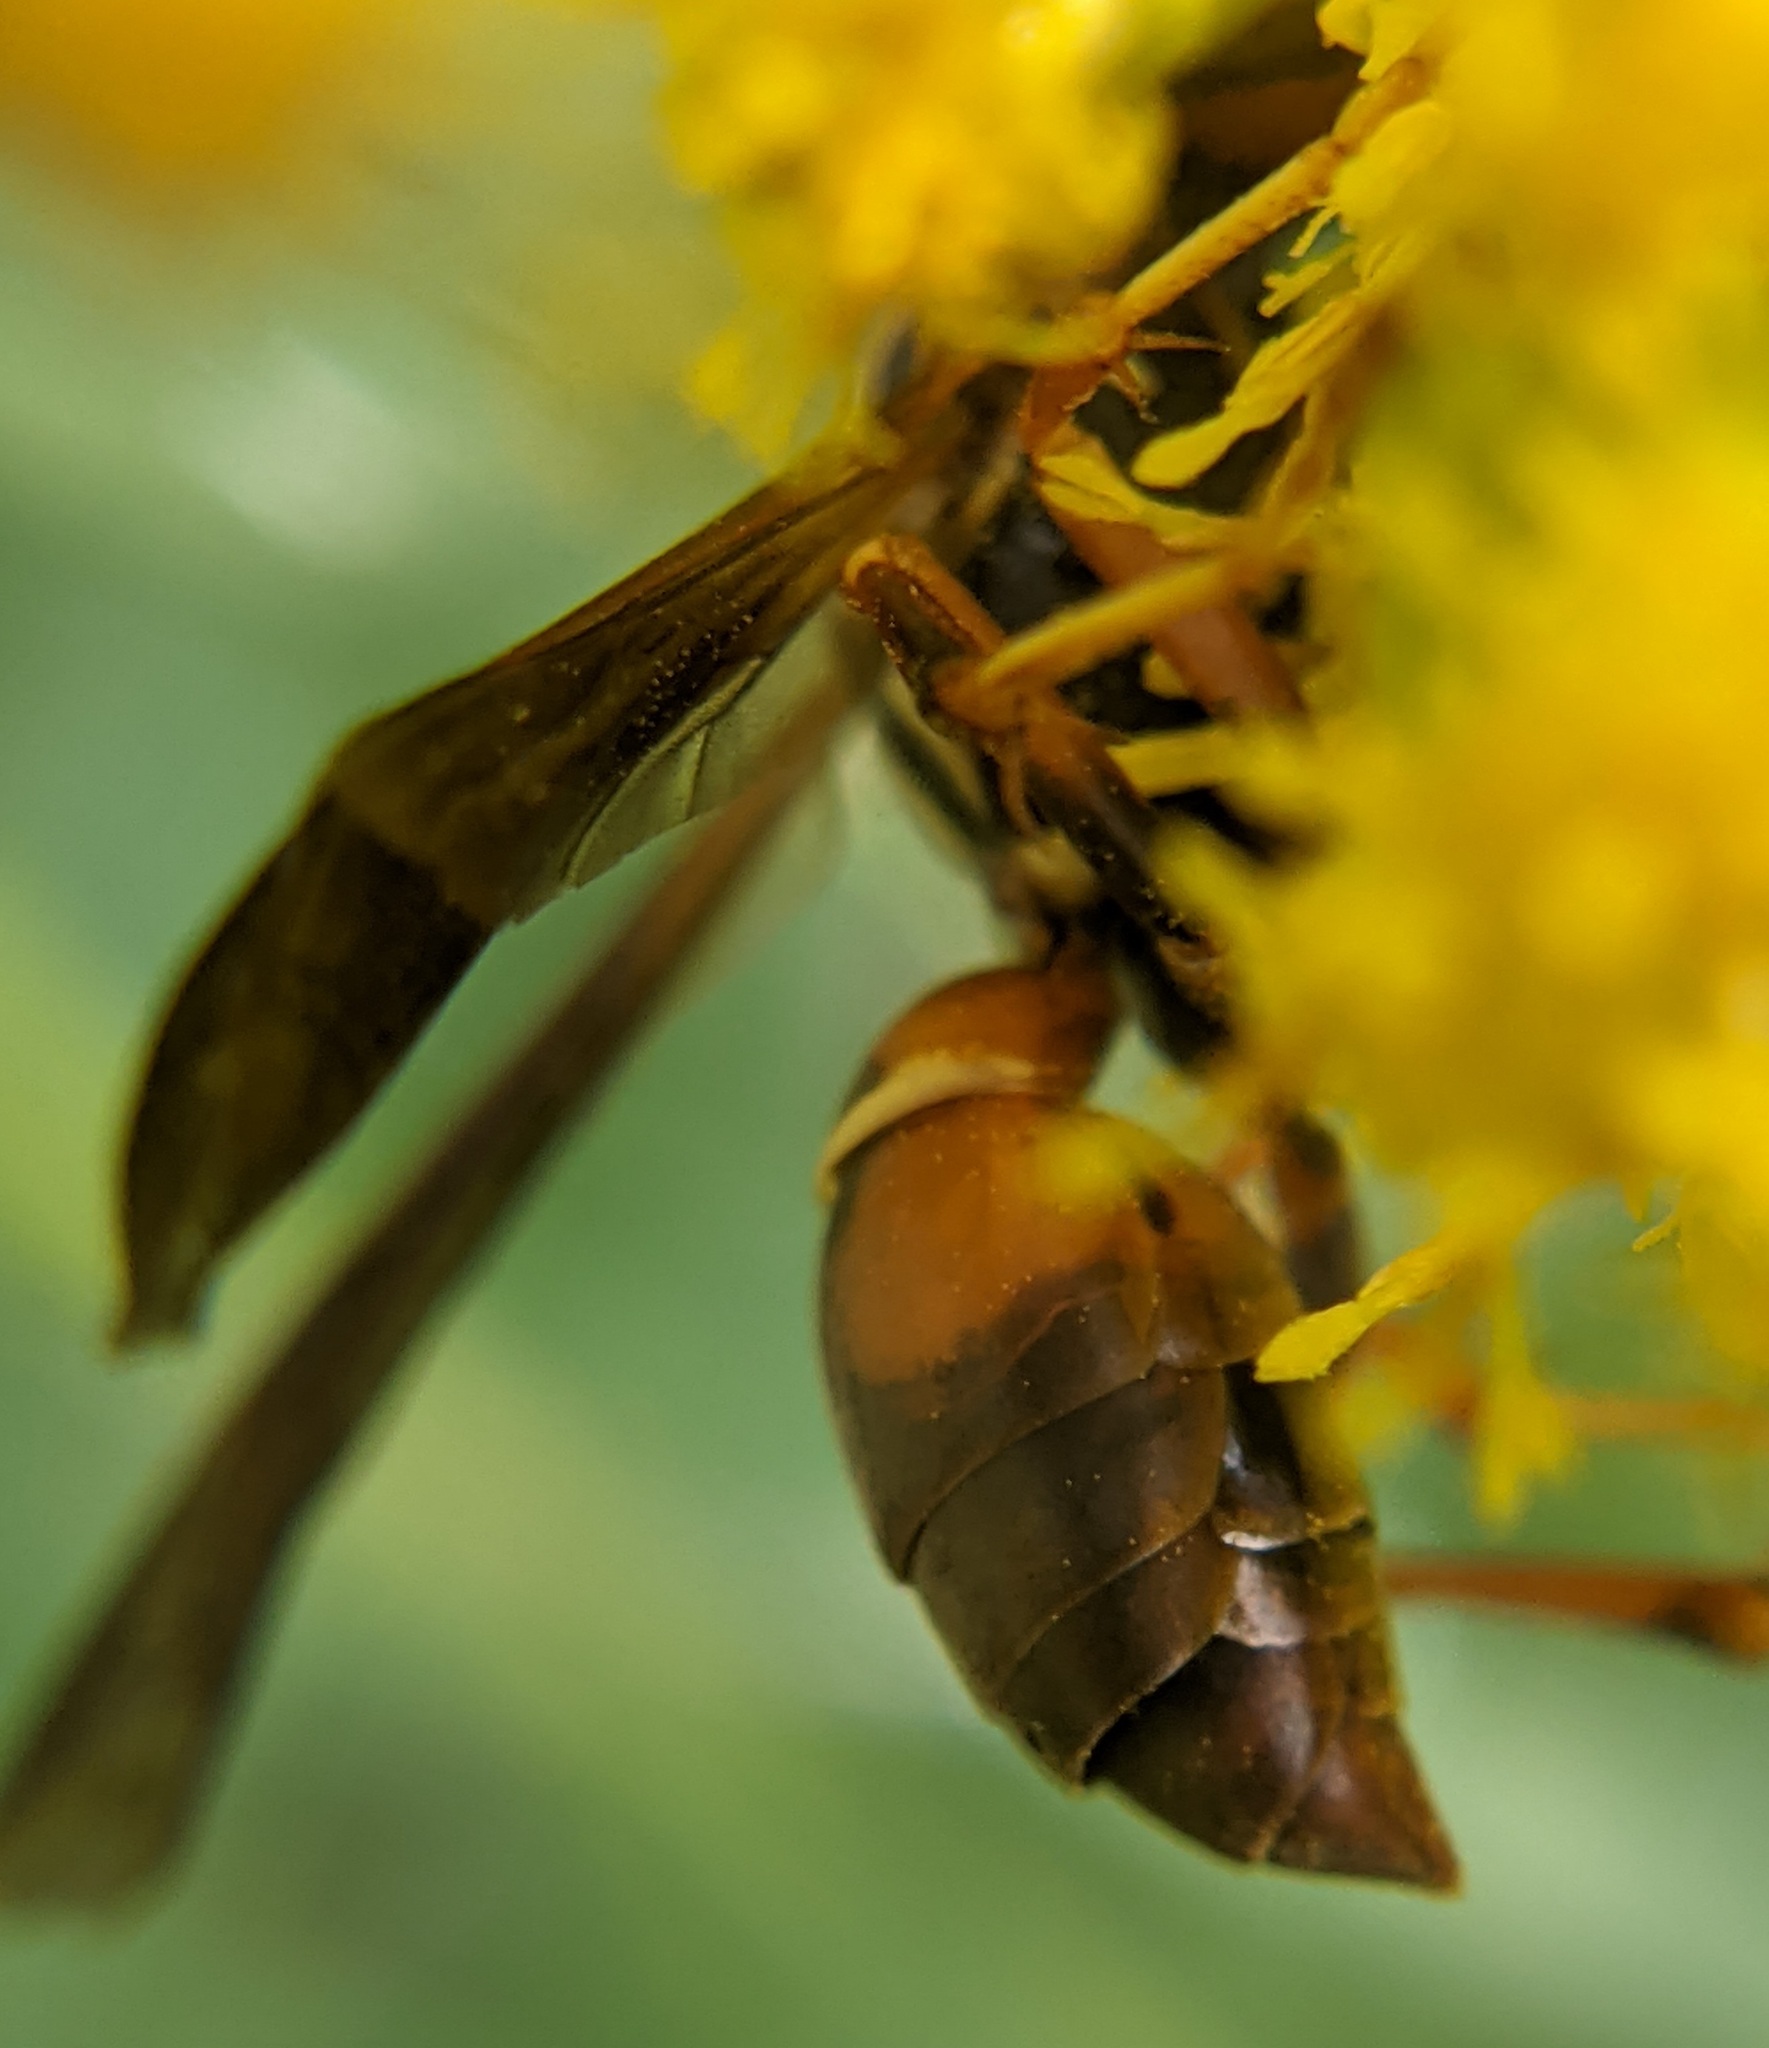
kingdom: Animalia
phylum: Arthropoda
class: Insecta
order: Strepsiptera
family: Xenidae
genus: Xenos
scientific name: Xenos pecki
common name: Twisted wing parasite
